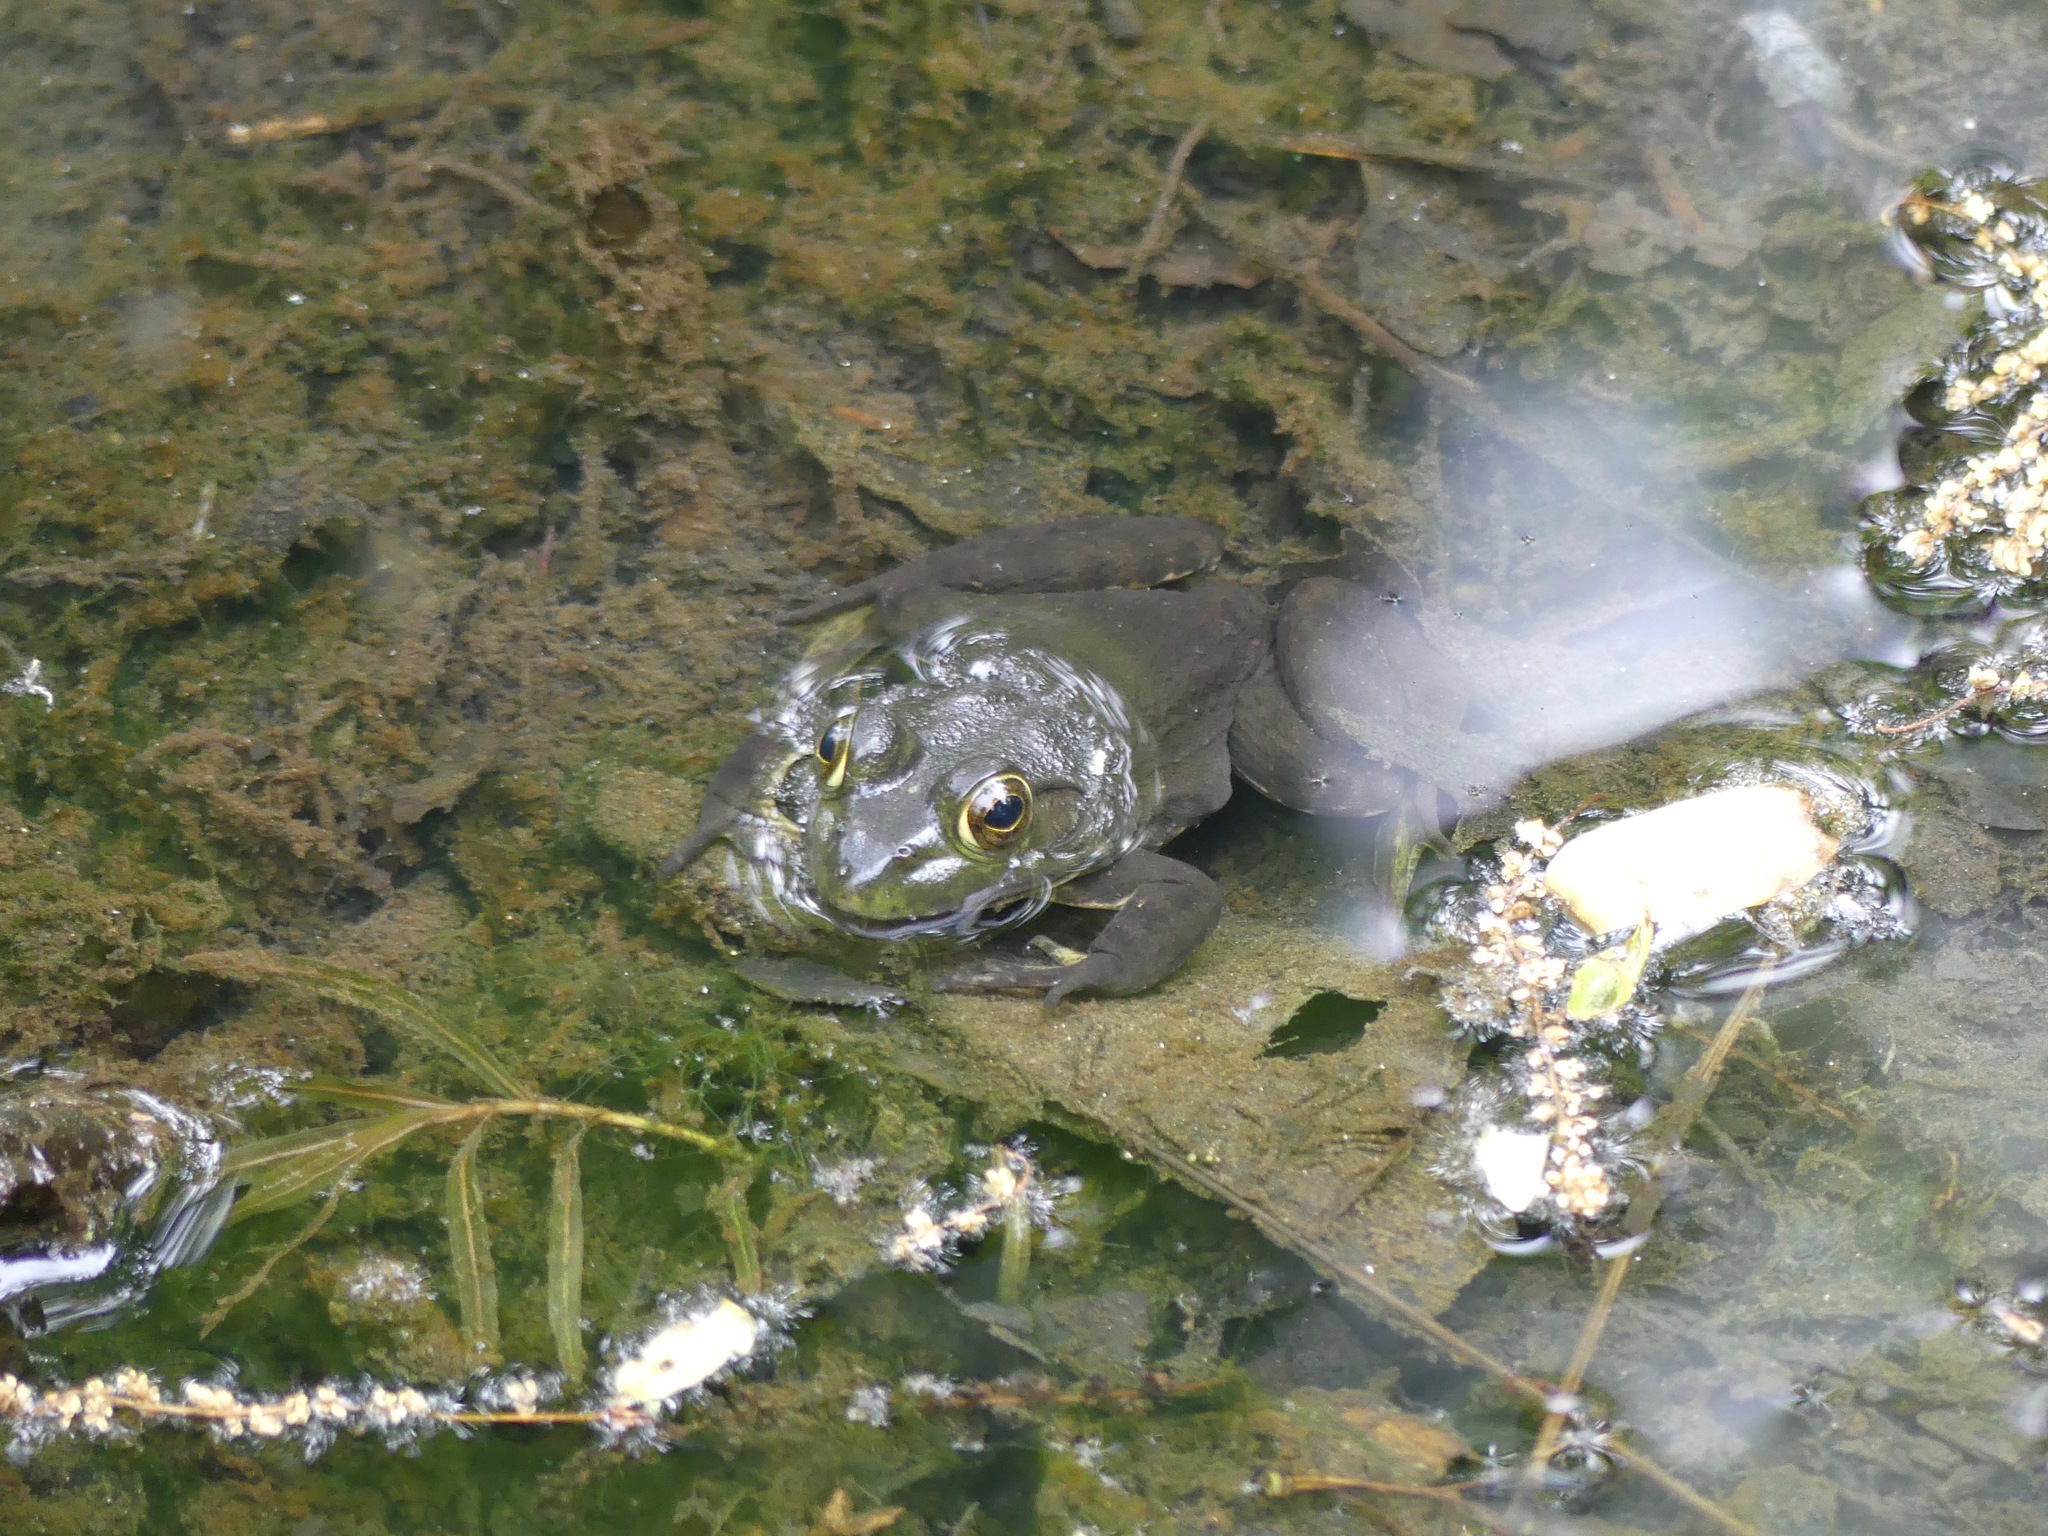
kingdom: Animalia
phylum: Chordata
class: Amphibia
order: Anura
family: Ranidae
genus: Lithobates
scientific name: Lithobates catesbeianus
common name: American bullfrog
